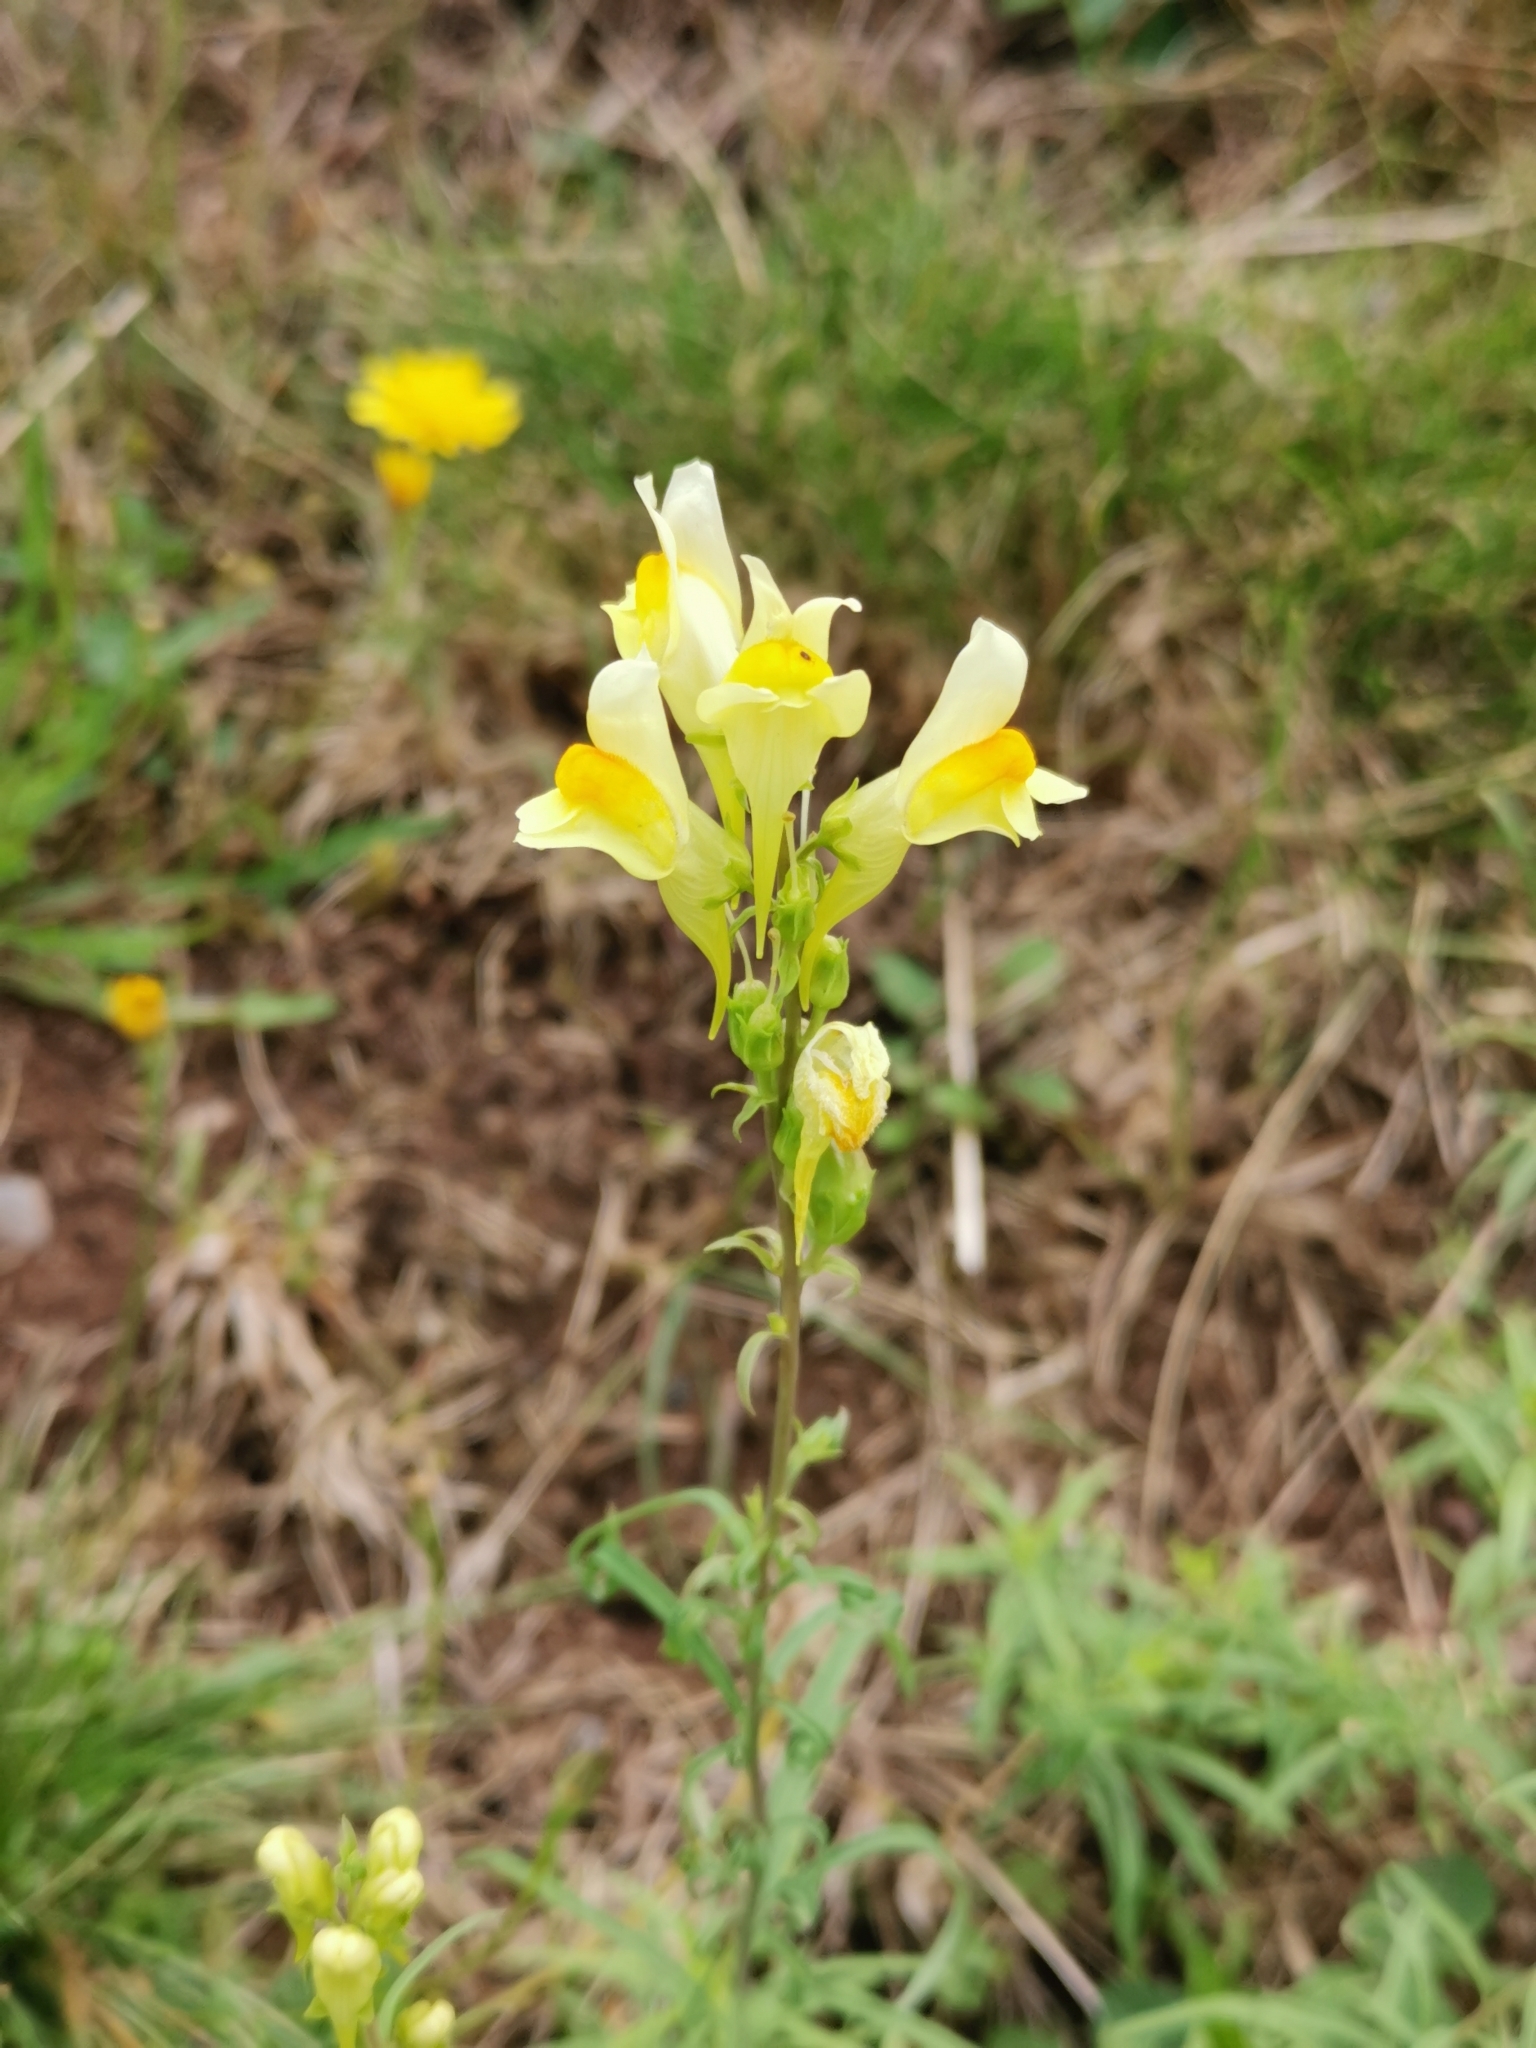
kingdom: Plantae
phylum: Tracheophyta
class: Magnoliopsida
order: Lamiales
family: Plantaginaceae
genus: Linaria
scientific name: Linaria vulgaris
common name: Butter and eggs
